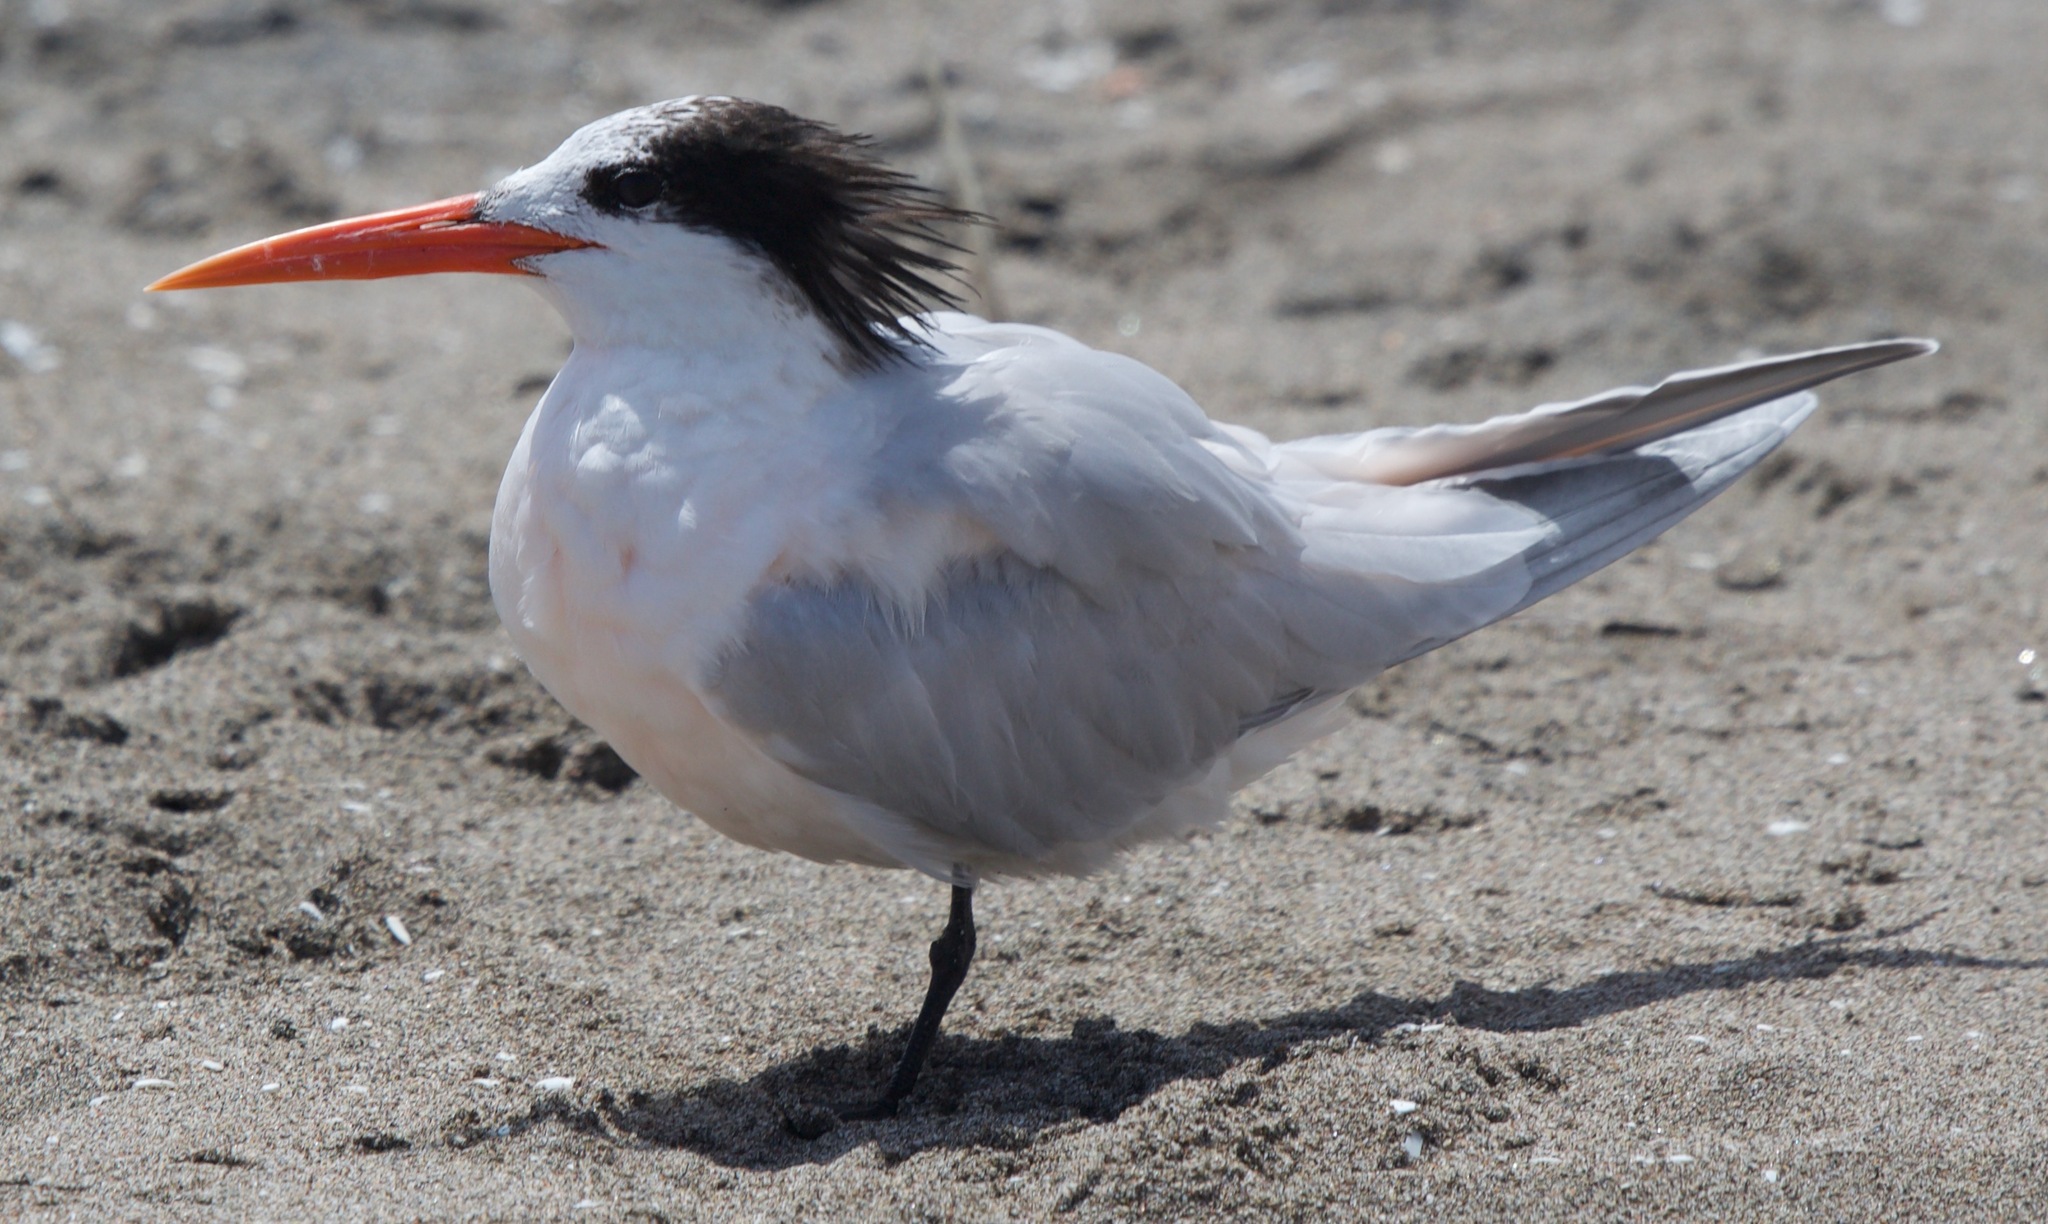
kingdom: Animalia
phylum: Chordata
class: Aves
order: Charadriiformes
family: Laridae
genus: Thalasseus
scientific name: Thalasseus elegans
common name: Elegant tern
